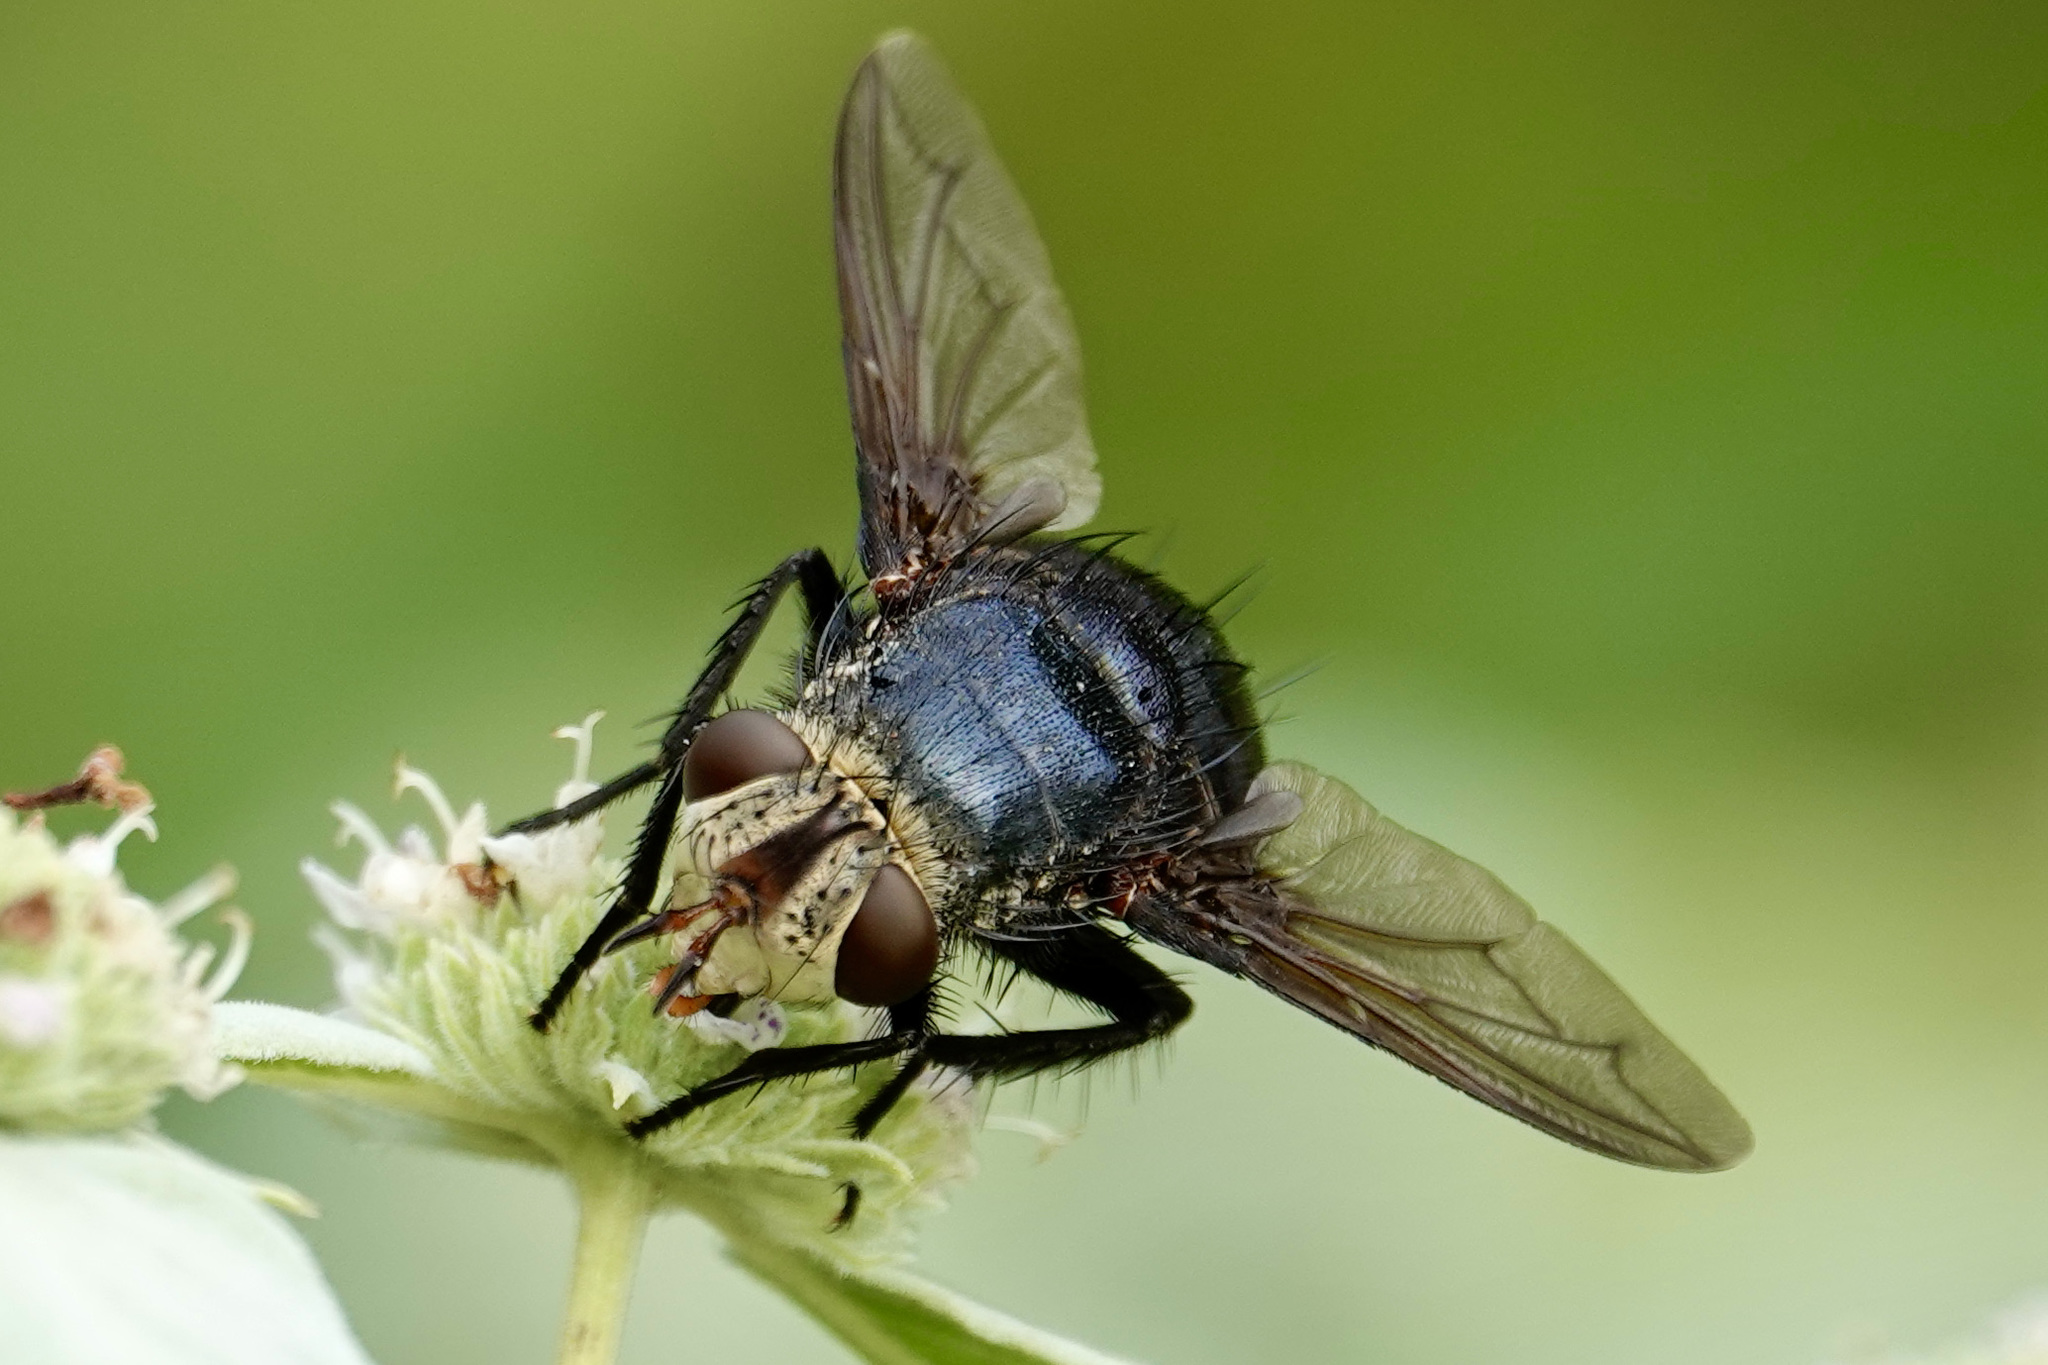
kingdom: Animalia
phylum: Arthropoda
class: Insecta
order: Diptera
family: Tachinidae
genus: Juriniopsis
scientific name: Juriniopsis adusta
